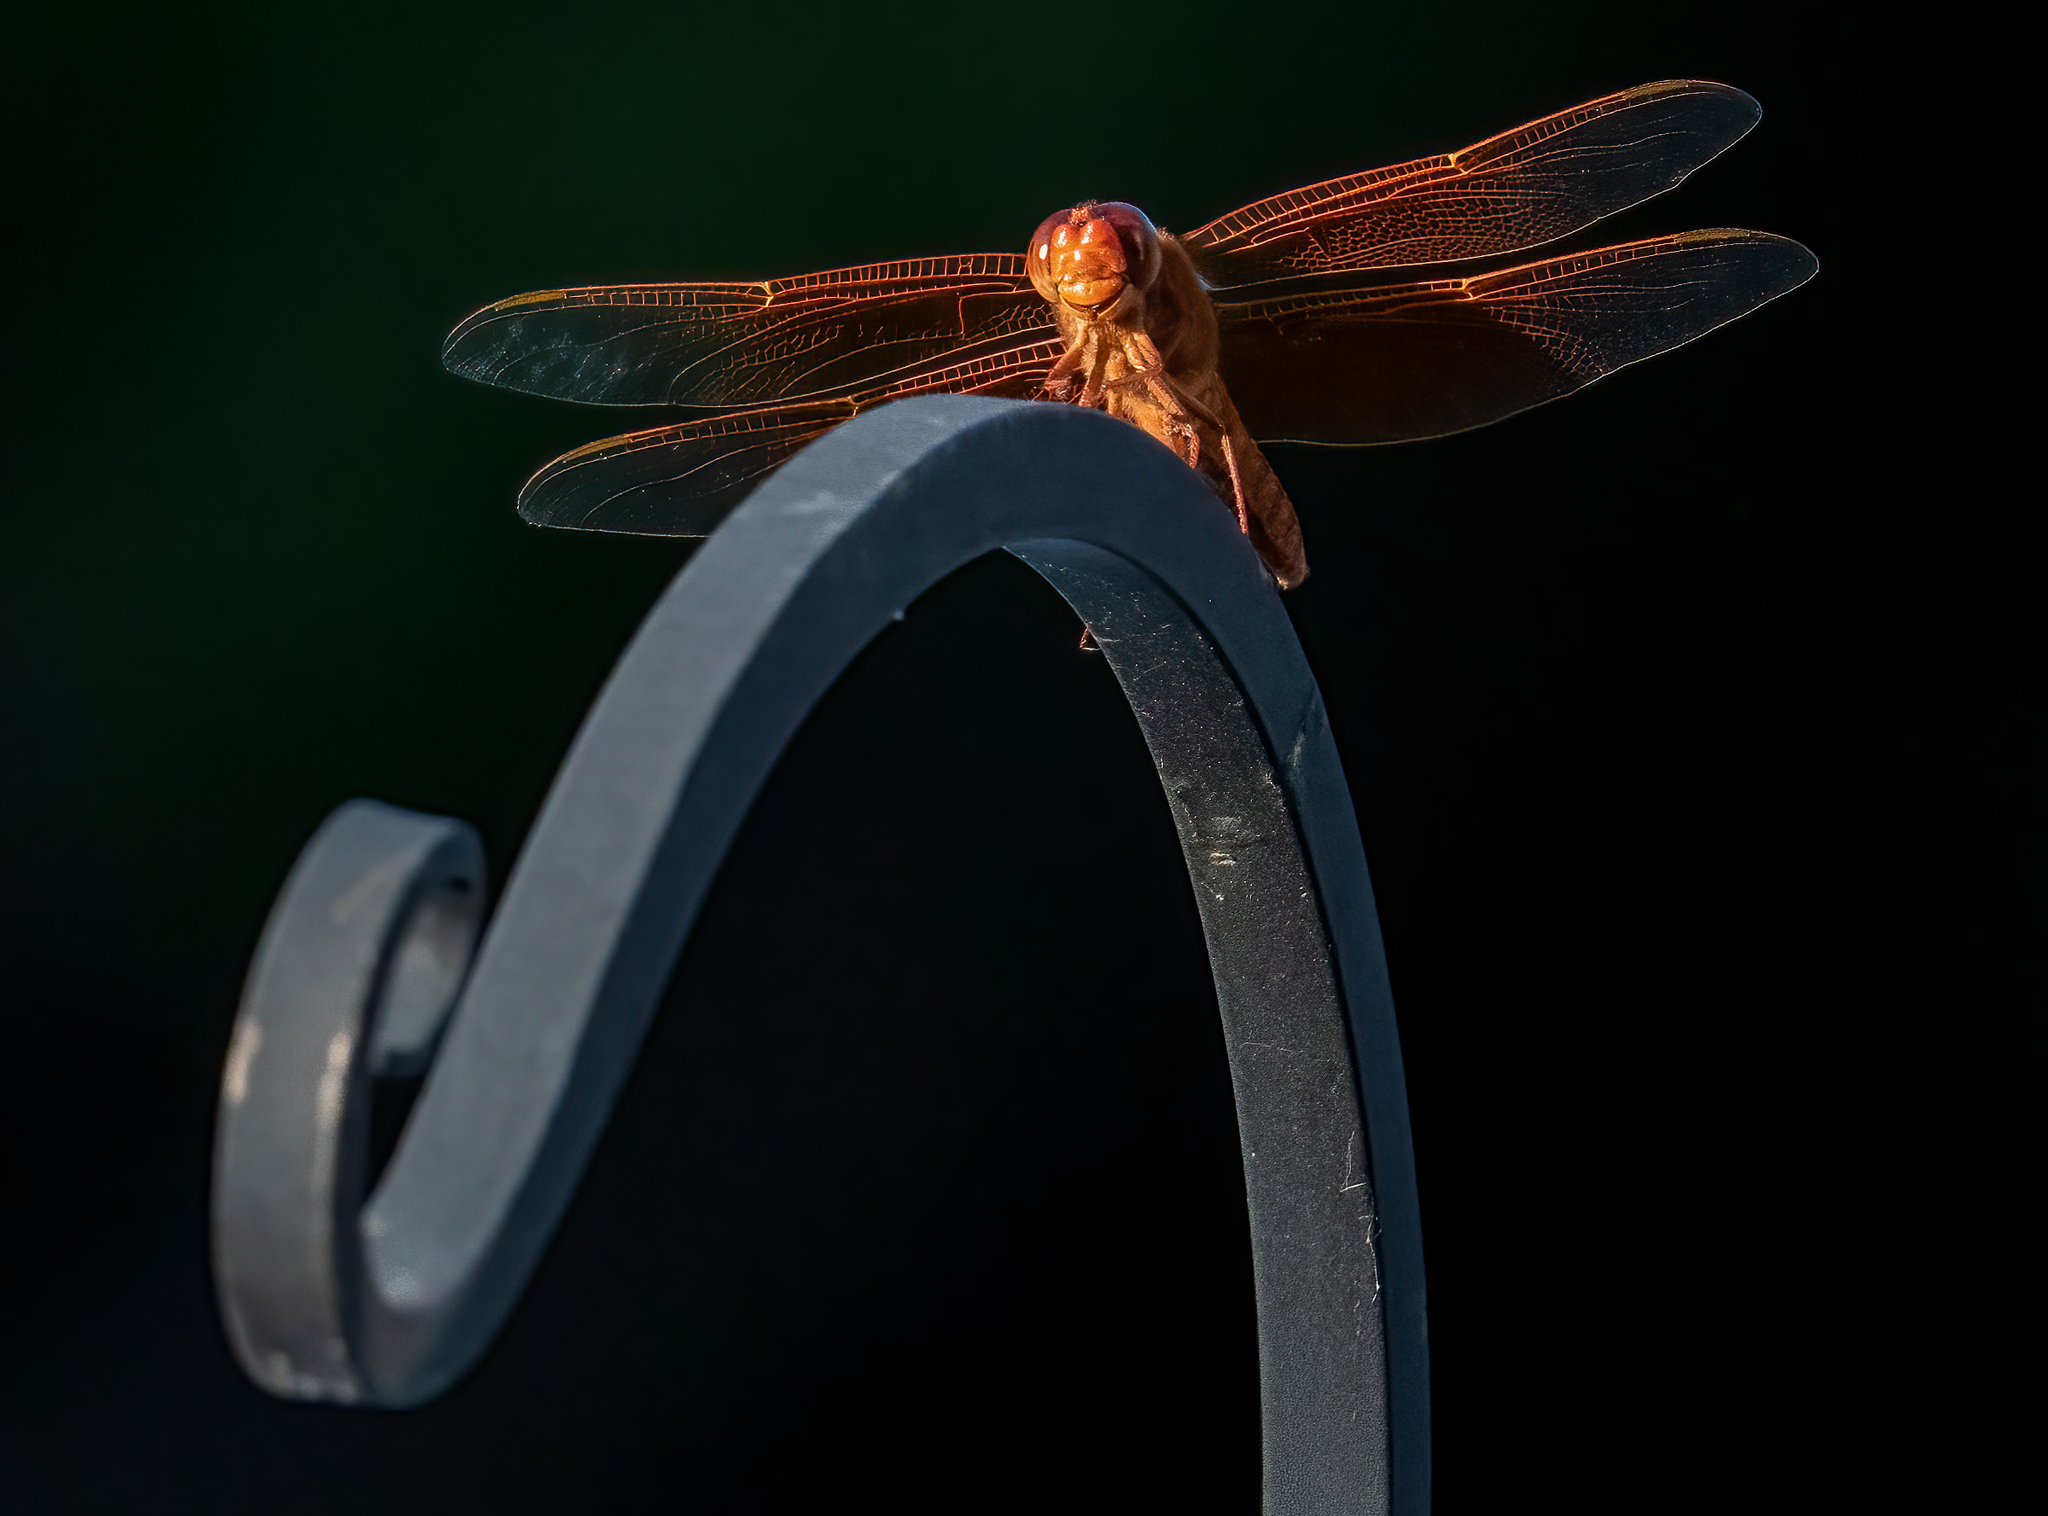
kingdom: Animalia
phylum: Arthropoda
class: Insecta
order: Odonata
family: Libellulidae
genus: Libellula
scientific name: Libellula saturata
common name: Flame skimmer
